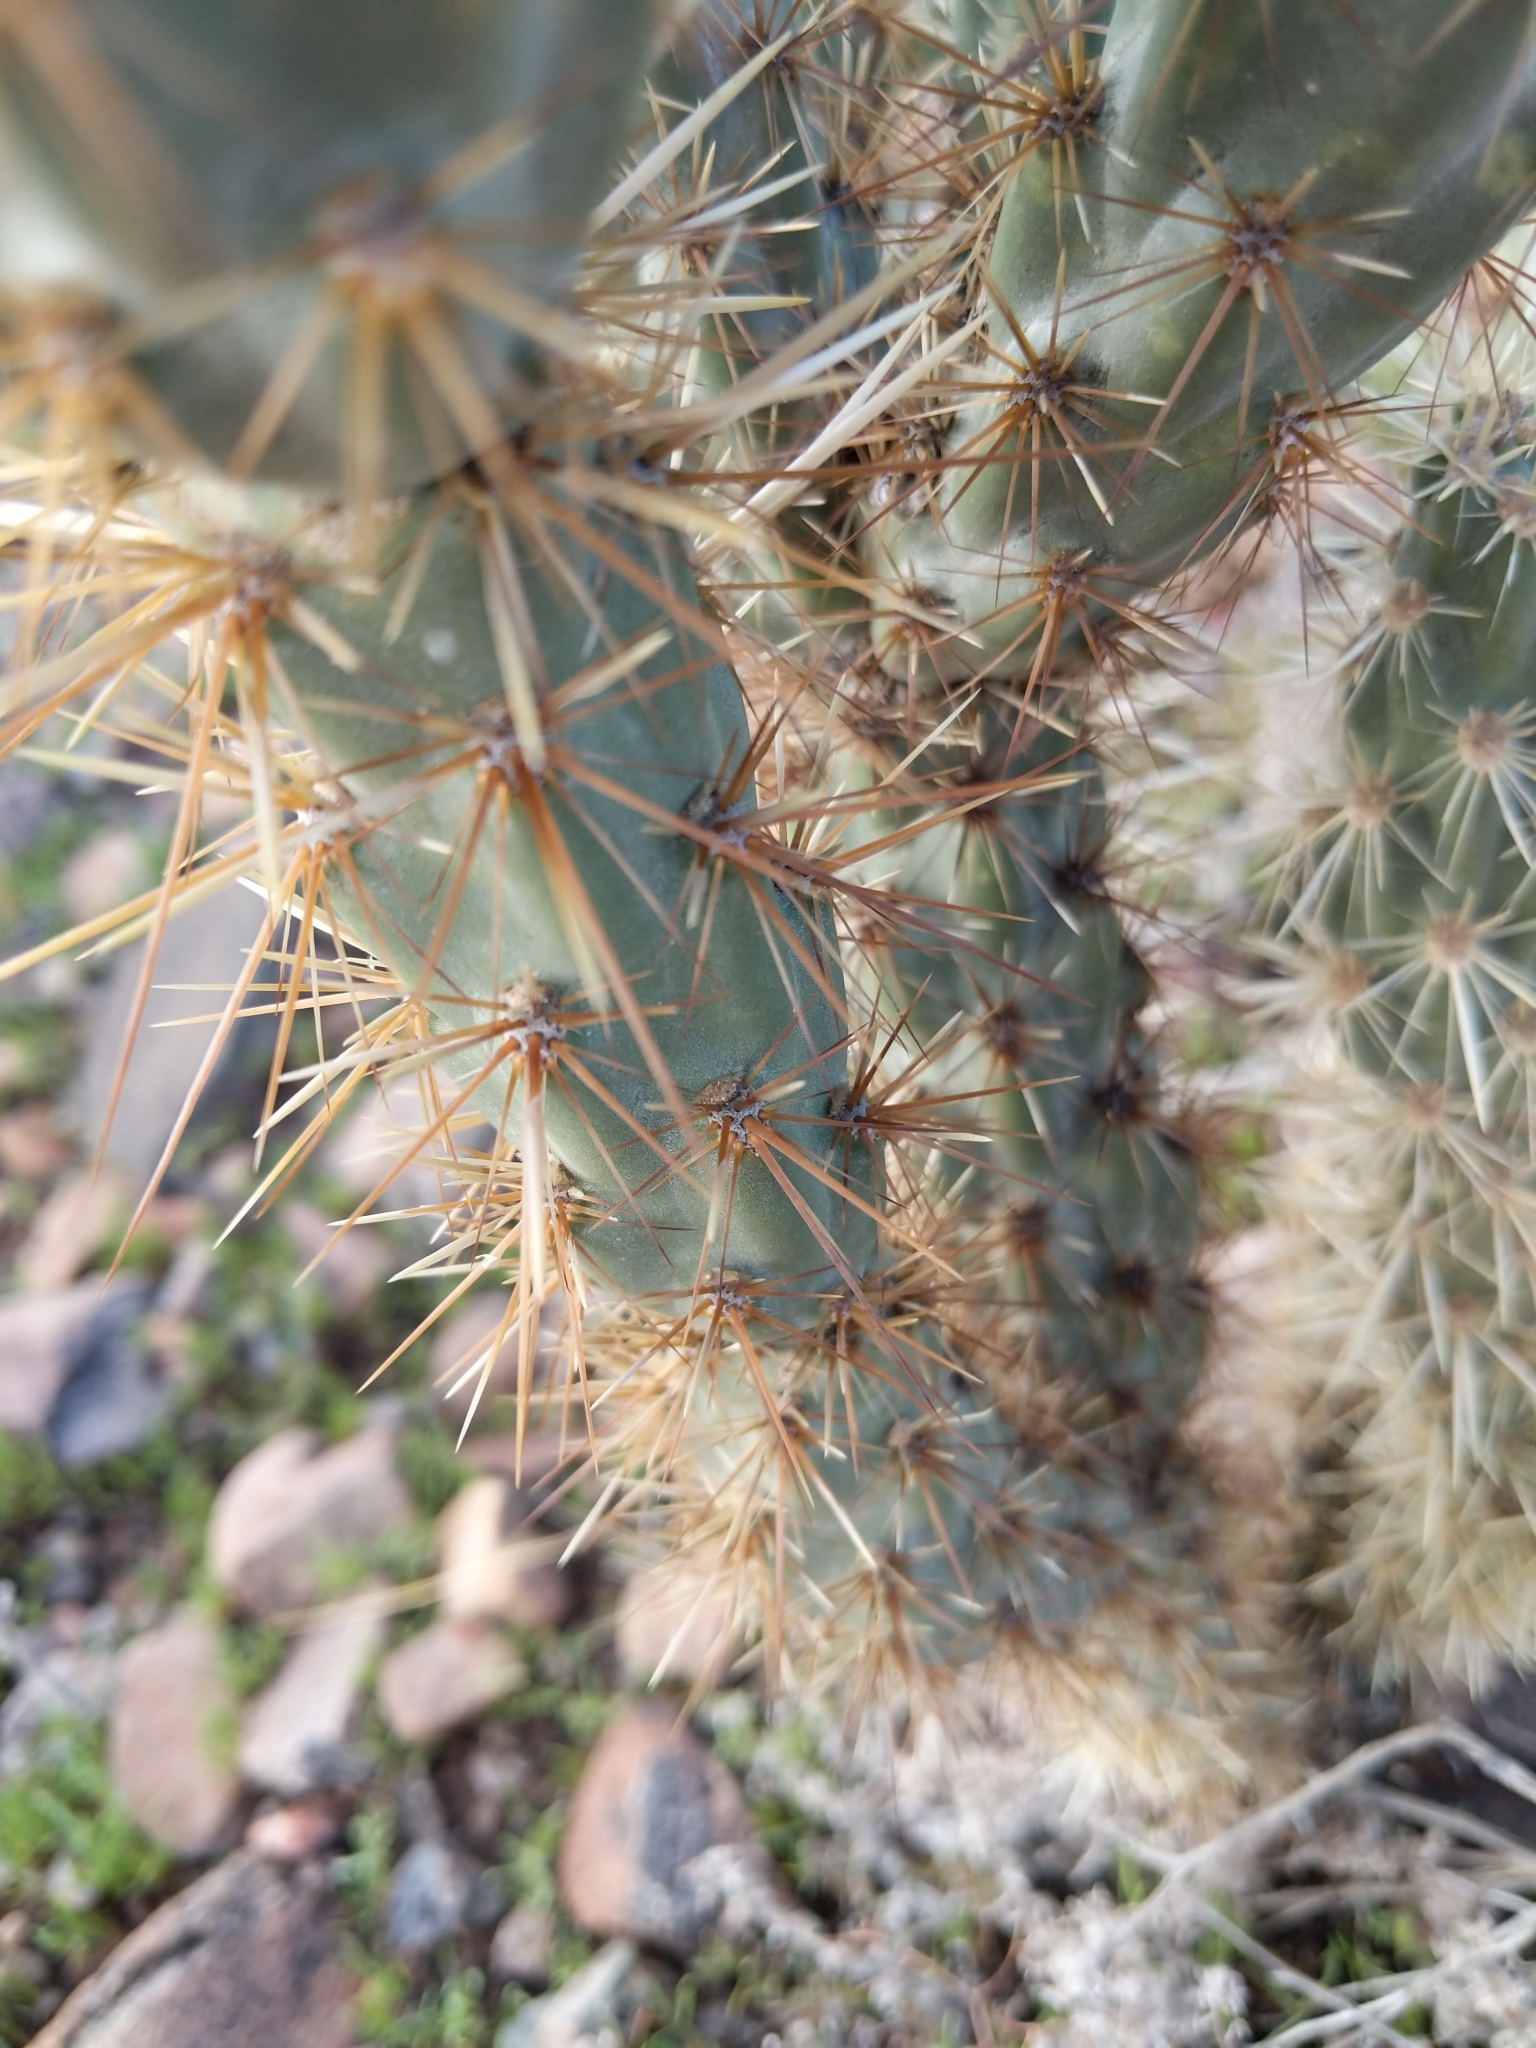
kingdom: Plantae
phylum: Tracheophyta
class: Magnoliopsida
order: Caryophyllales
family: Cactaceae
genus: Cylindropuntia
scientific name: Cylindropuntia acanthocarpa
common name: Buckhorn cholla
